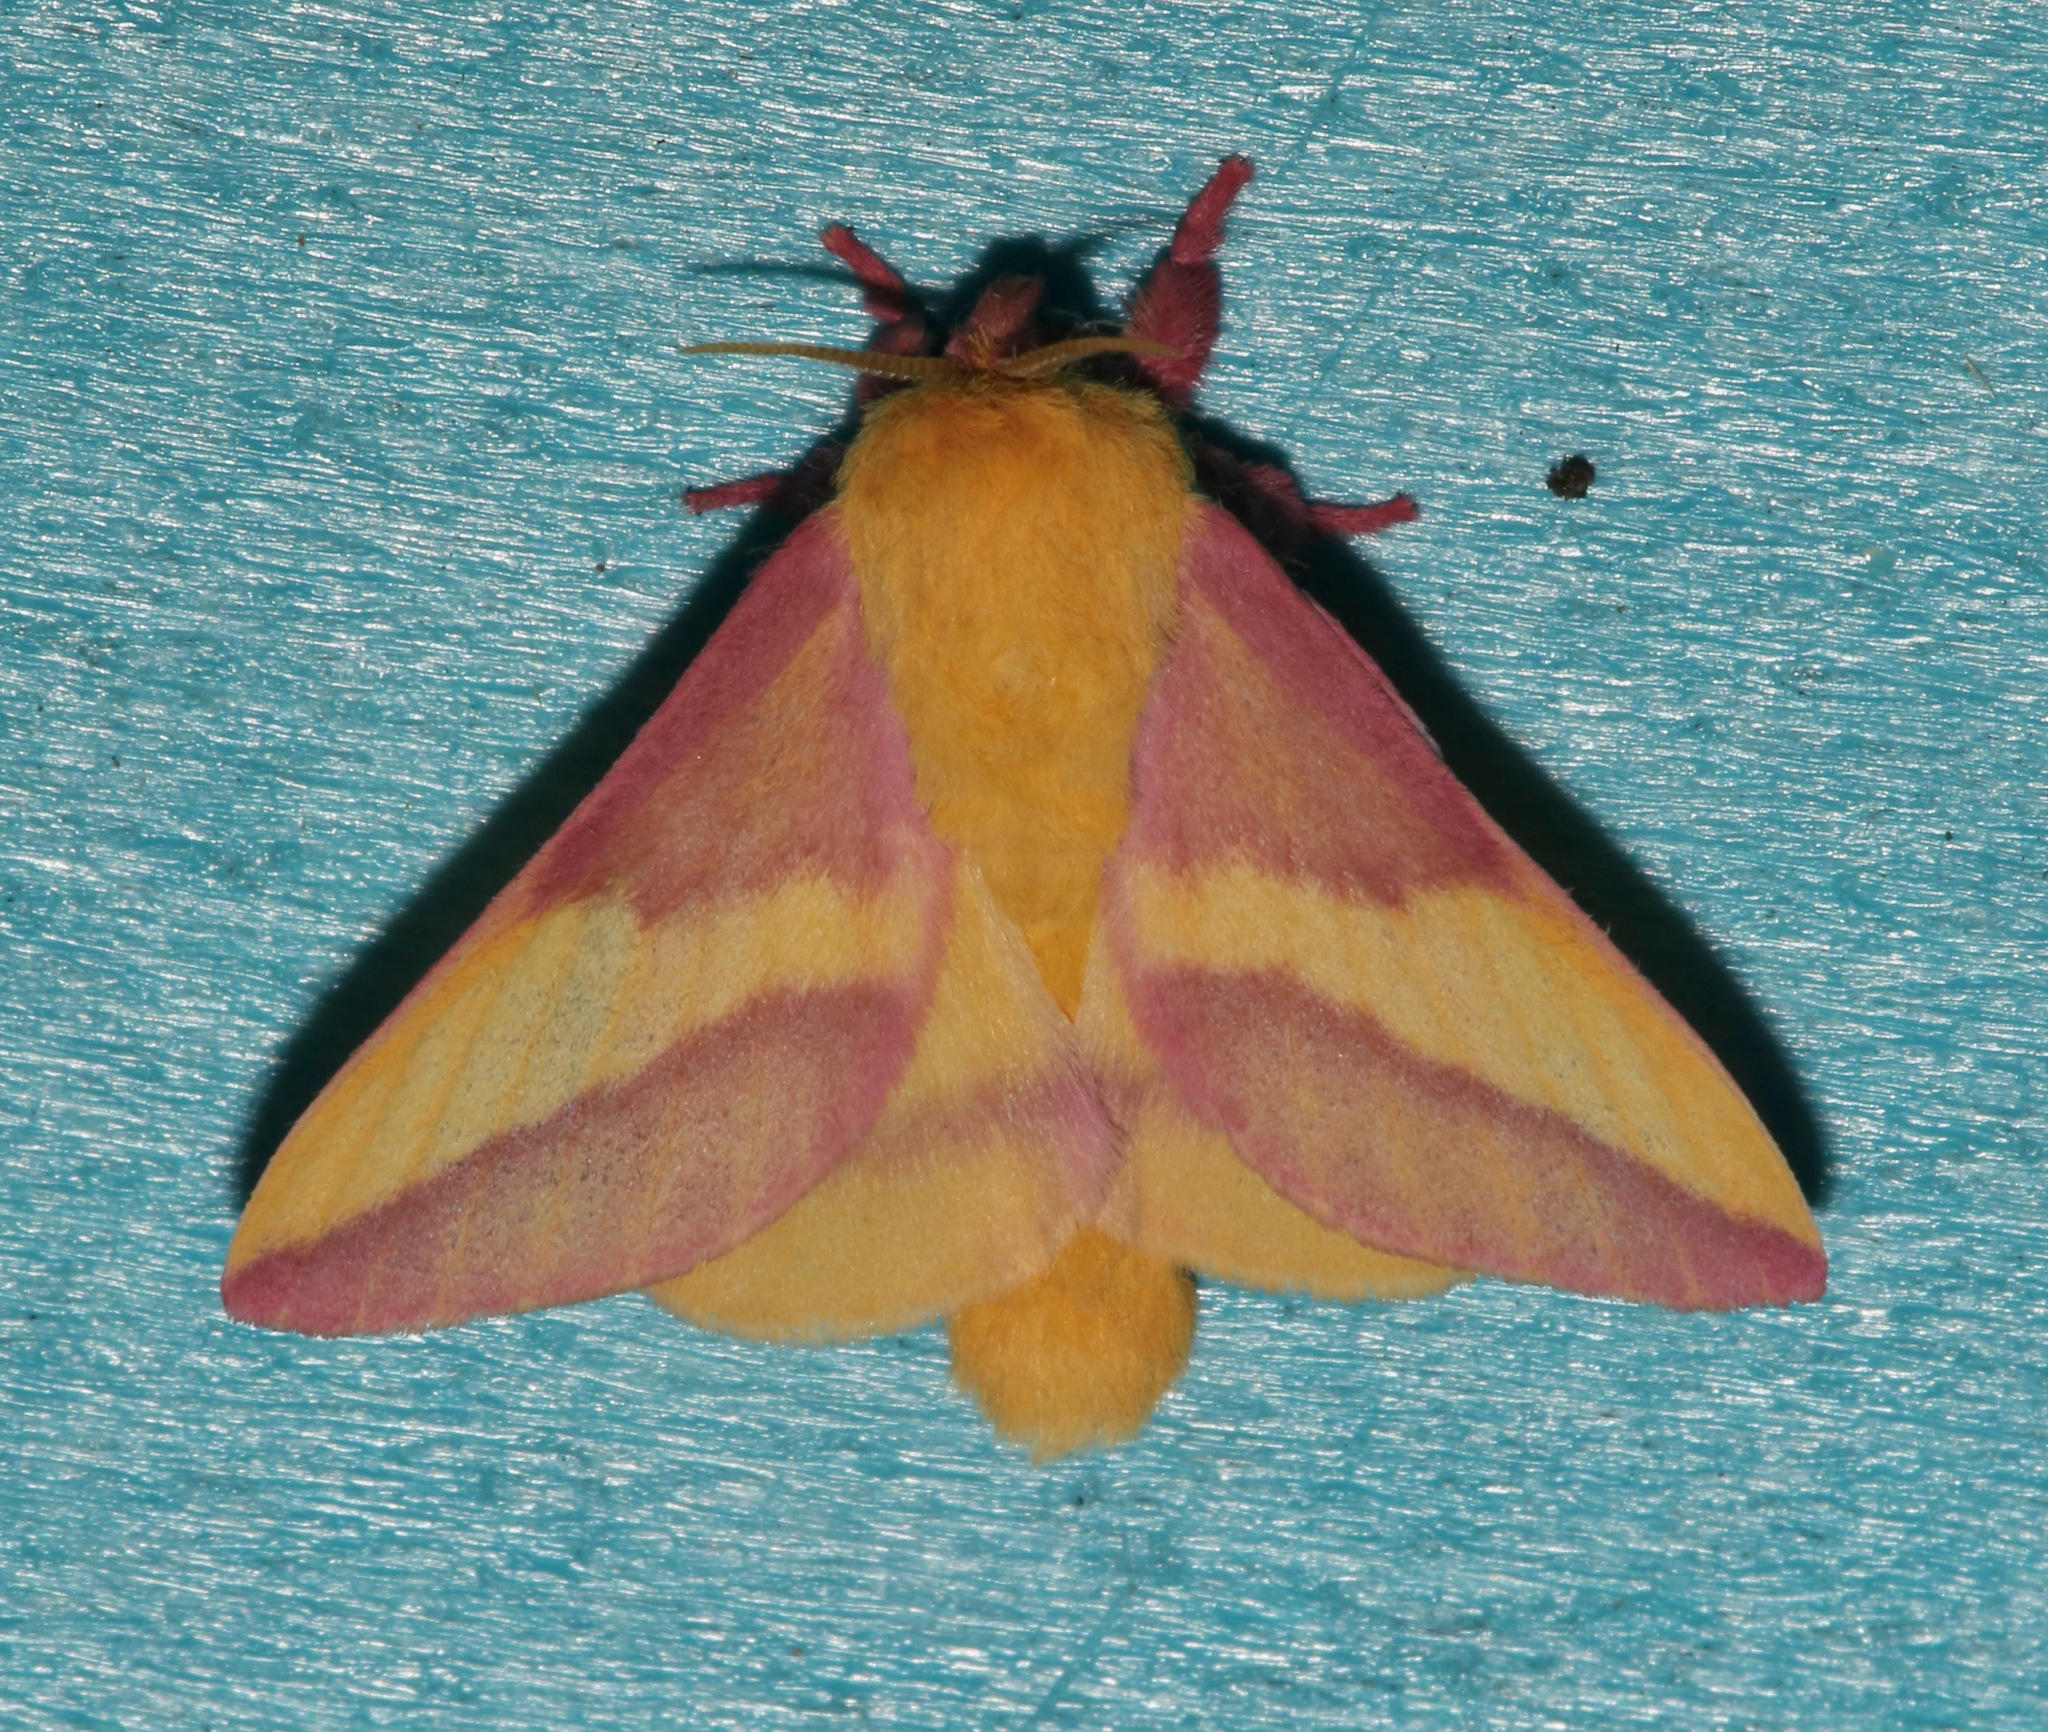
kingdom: Animalia
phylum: Arthropoda
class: Insecta
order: Lepidoptera
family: Saturniidae
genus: Dryocampa
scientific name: Dryocampa rubicunda
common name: Rosy maple moth
